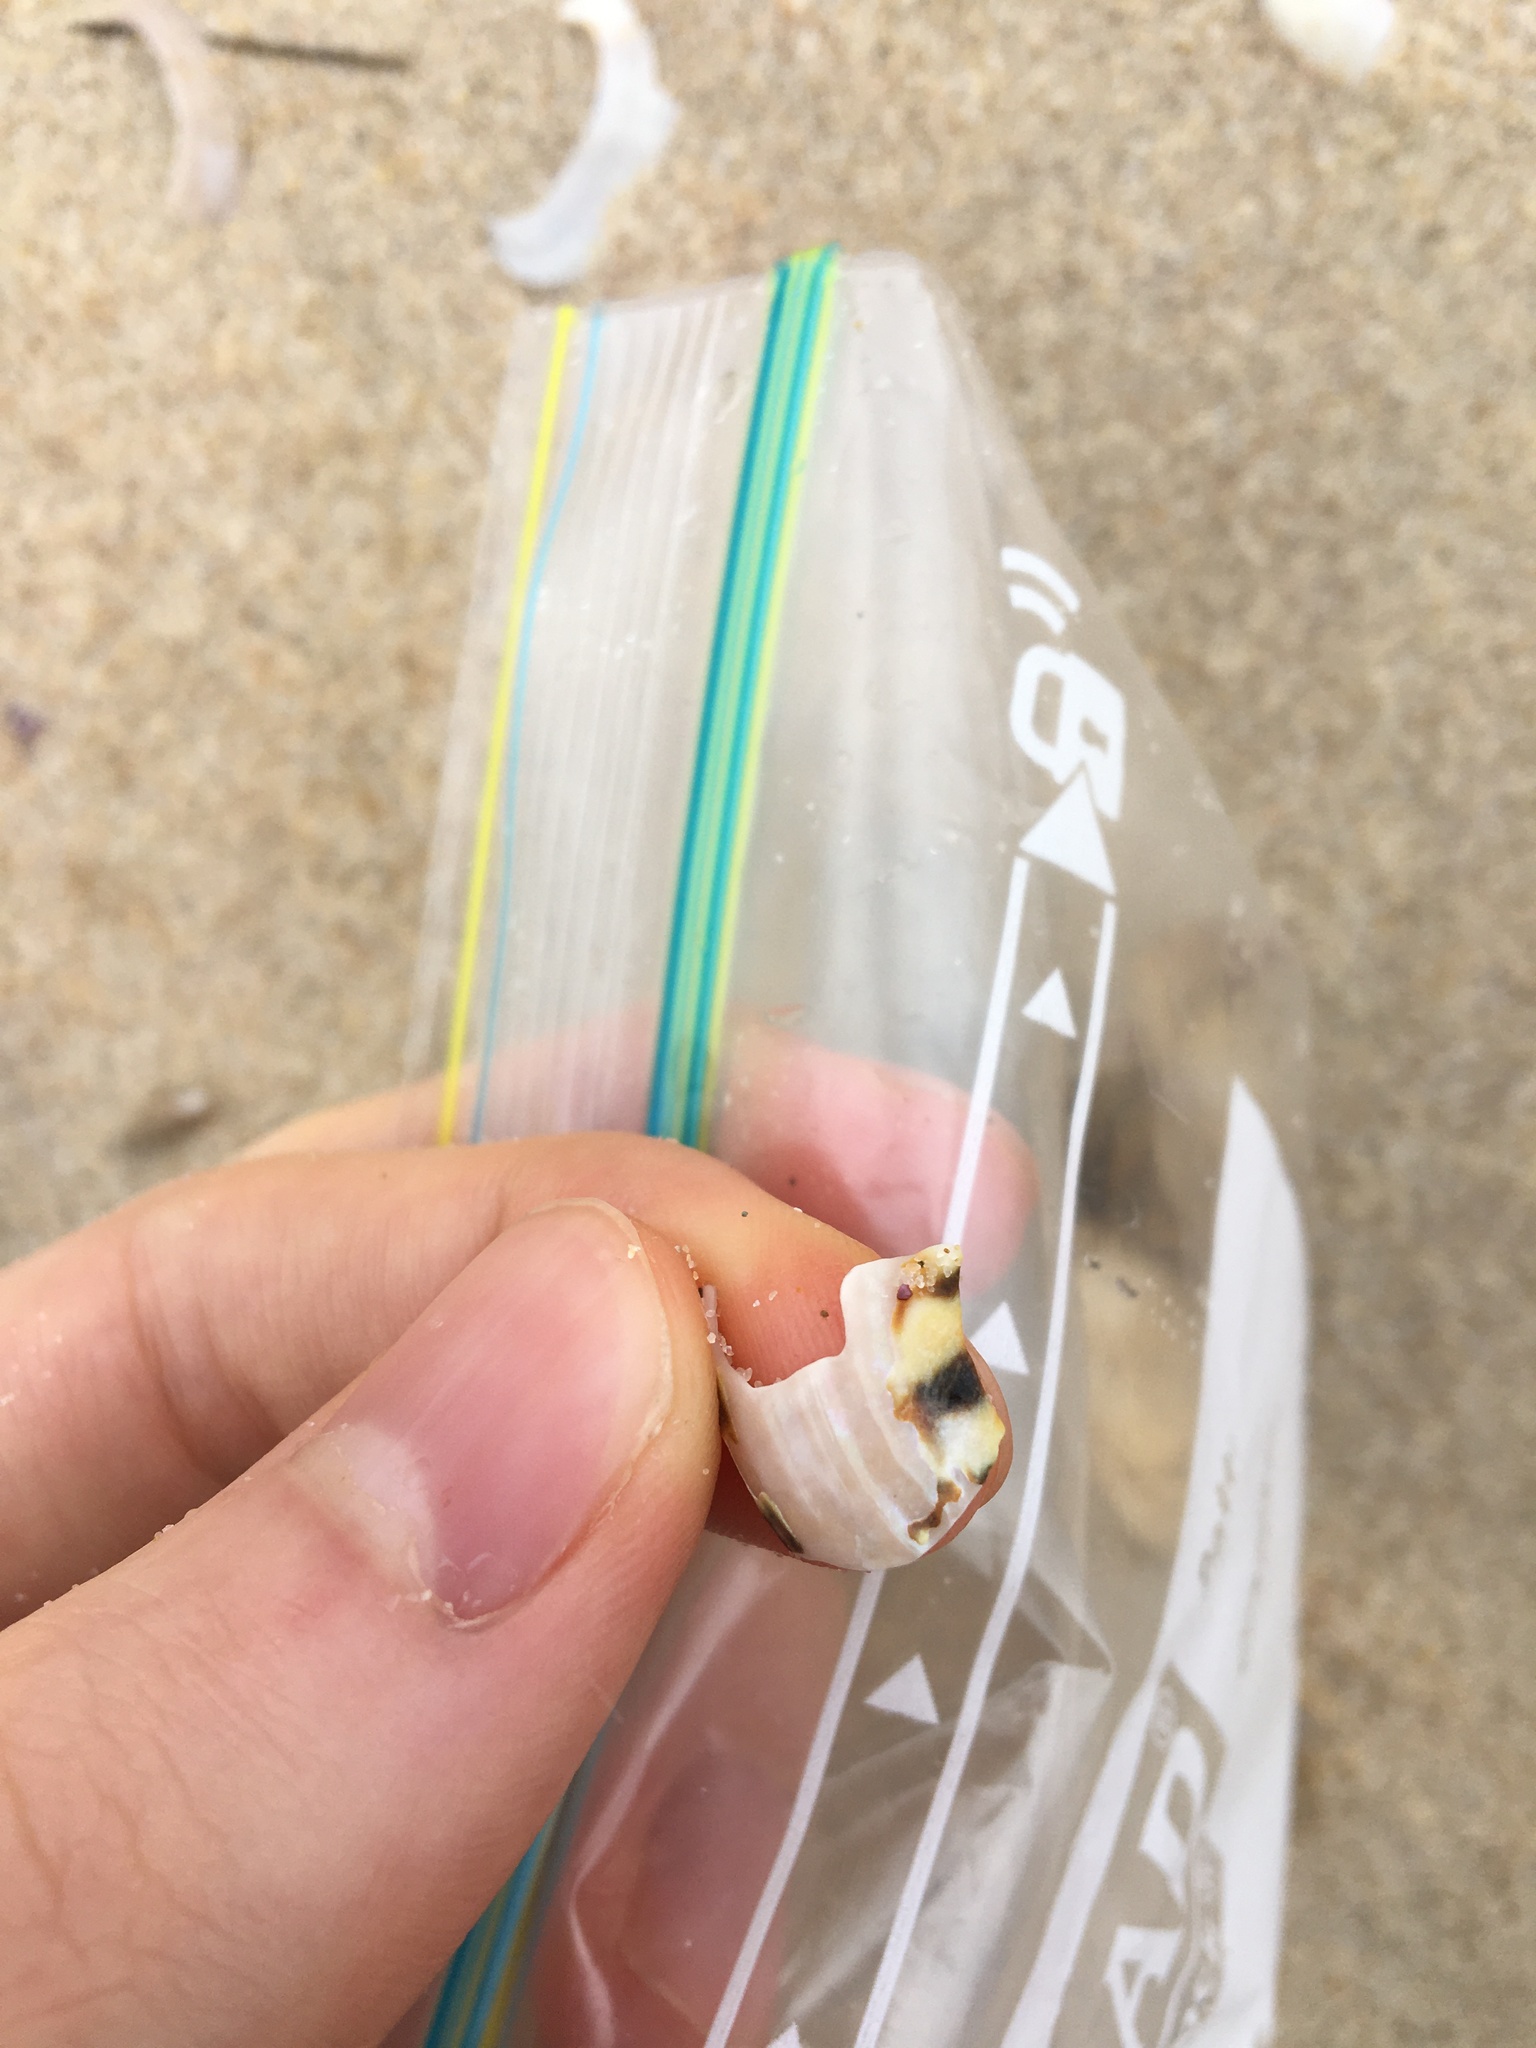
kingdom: Animalia
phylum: Mollusca
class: Gastropoda
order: Trochida
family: Turbinidae
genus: Lunella
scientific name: Lunella undulata
